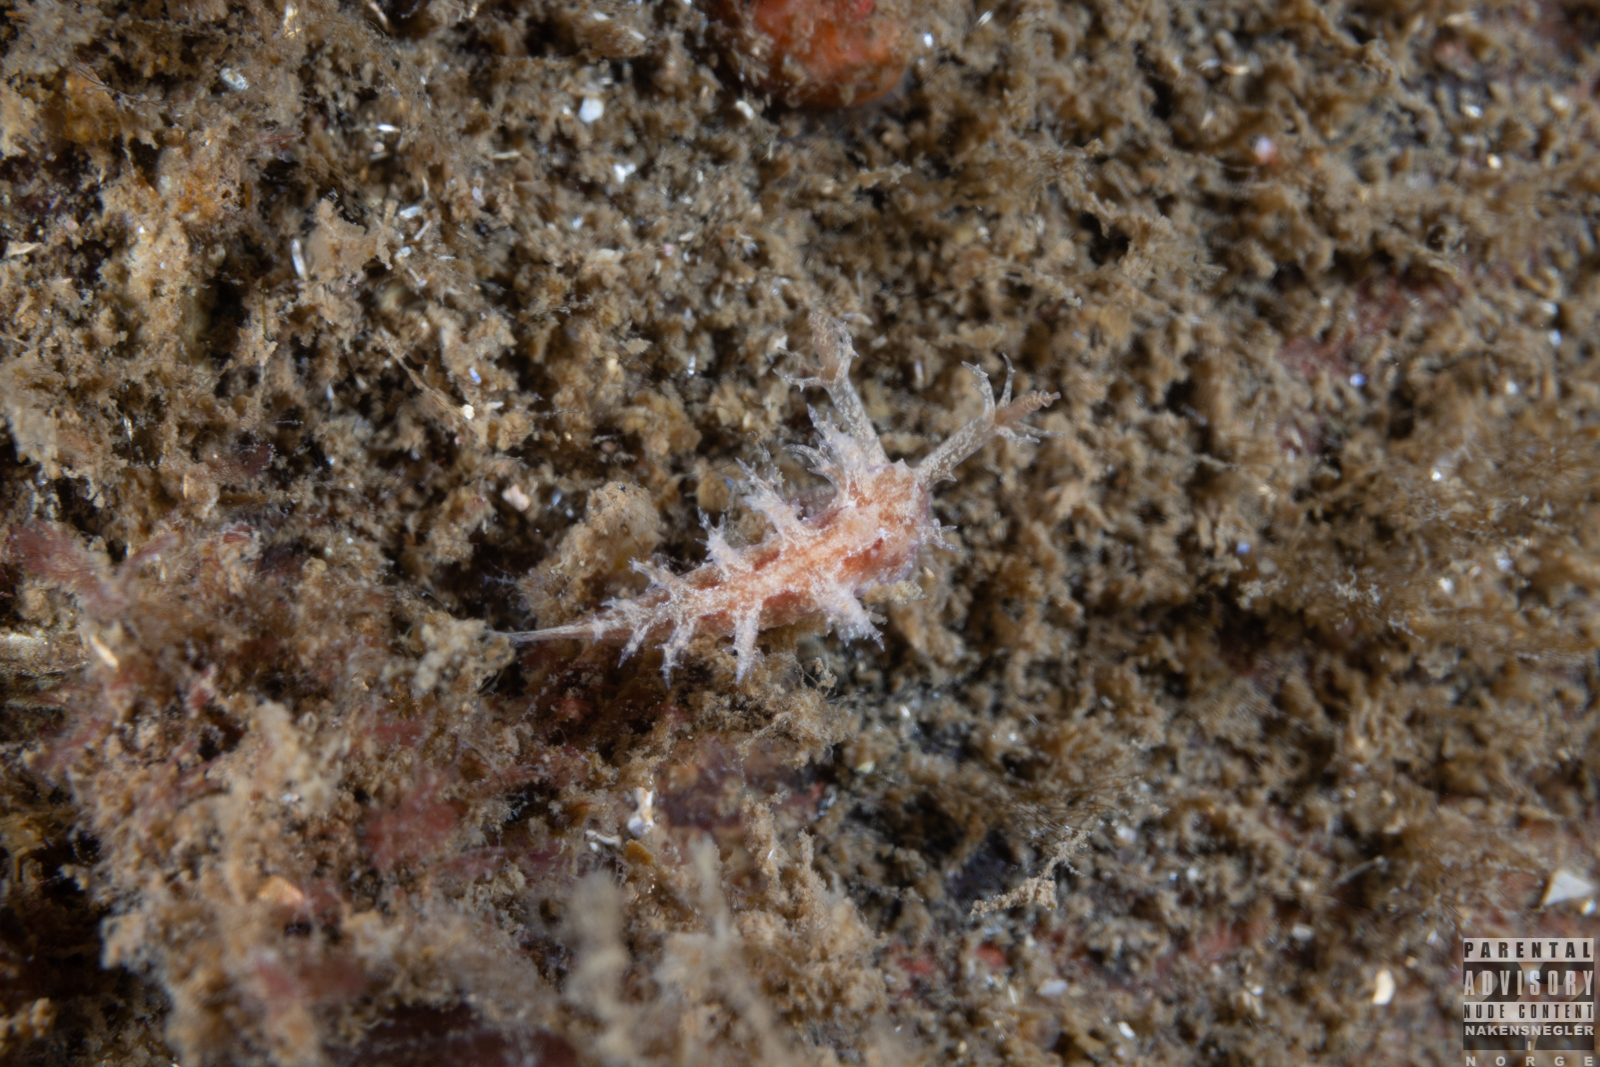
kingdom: Animalia
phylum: Mollusca
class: Gastropoda
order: Nudibranchia
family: Dendronotidae
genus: Dendronotus
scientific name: Dendronotus frondosus
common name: Bushy-backed nudibranch
